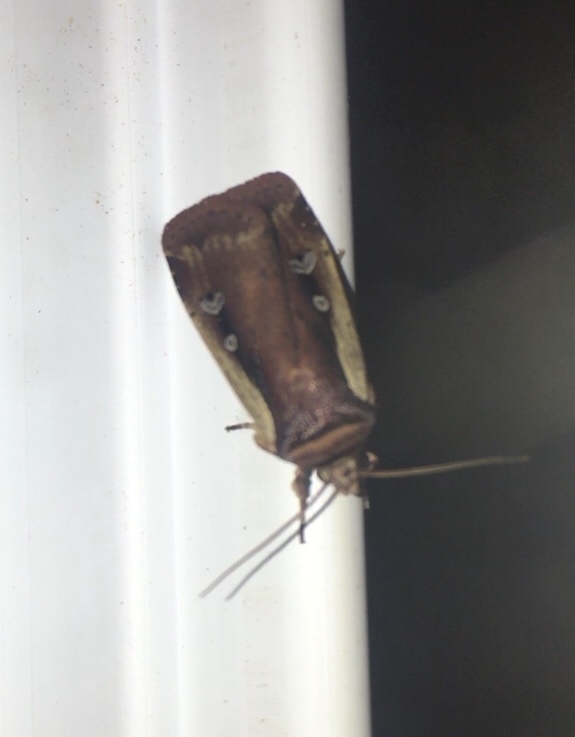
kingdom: Animalia
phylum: Arthropoda
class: Insecta
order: Lepidoptera
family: Noctuidae
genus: Ochropleura
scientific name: Ochropleura implecta
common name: Flame-shouldered dart
